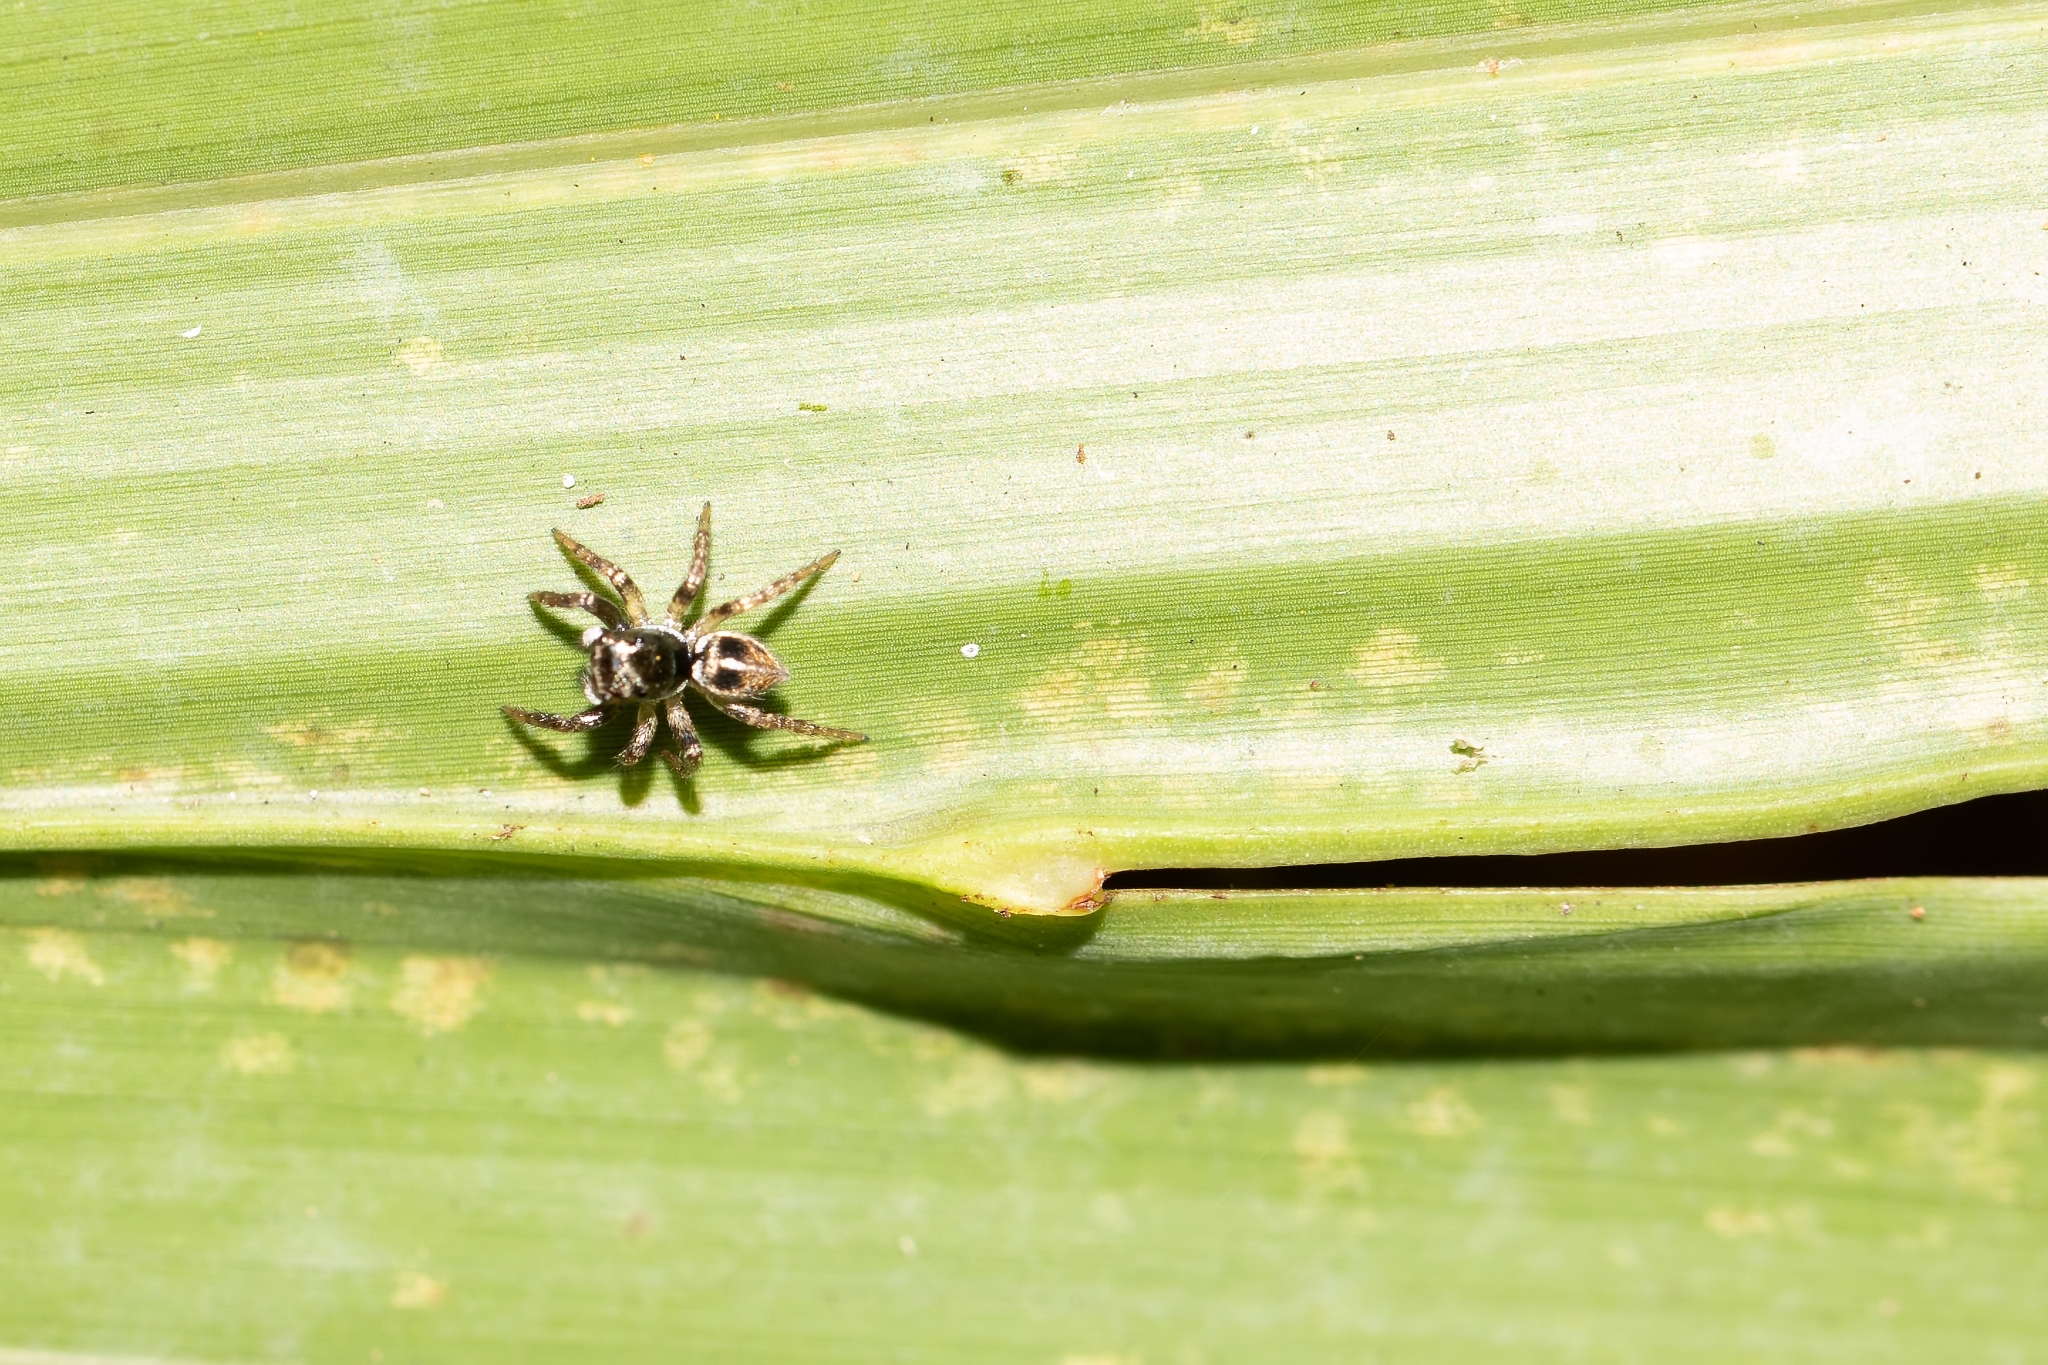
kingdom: Animalia
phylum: Arthropoda
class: Arachnida
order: Araneae
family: Salticidae
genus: Anasaitis
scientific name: Anasaitis canosa
